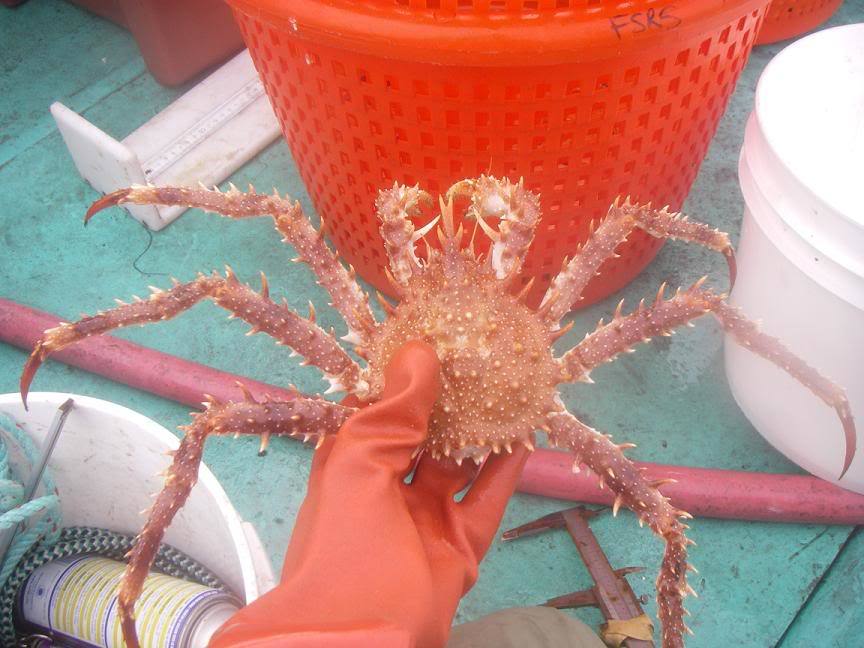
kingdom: Animalia
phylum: Arthropoda
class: Malacostraca
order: Decapoda
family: Lithodidae
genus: Lithodes
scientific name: Lithodes maja
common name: Northern stone crab
